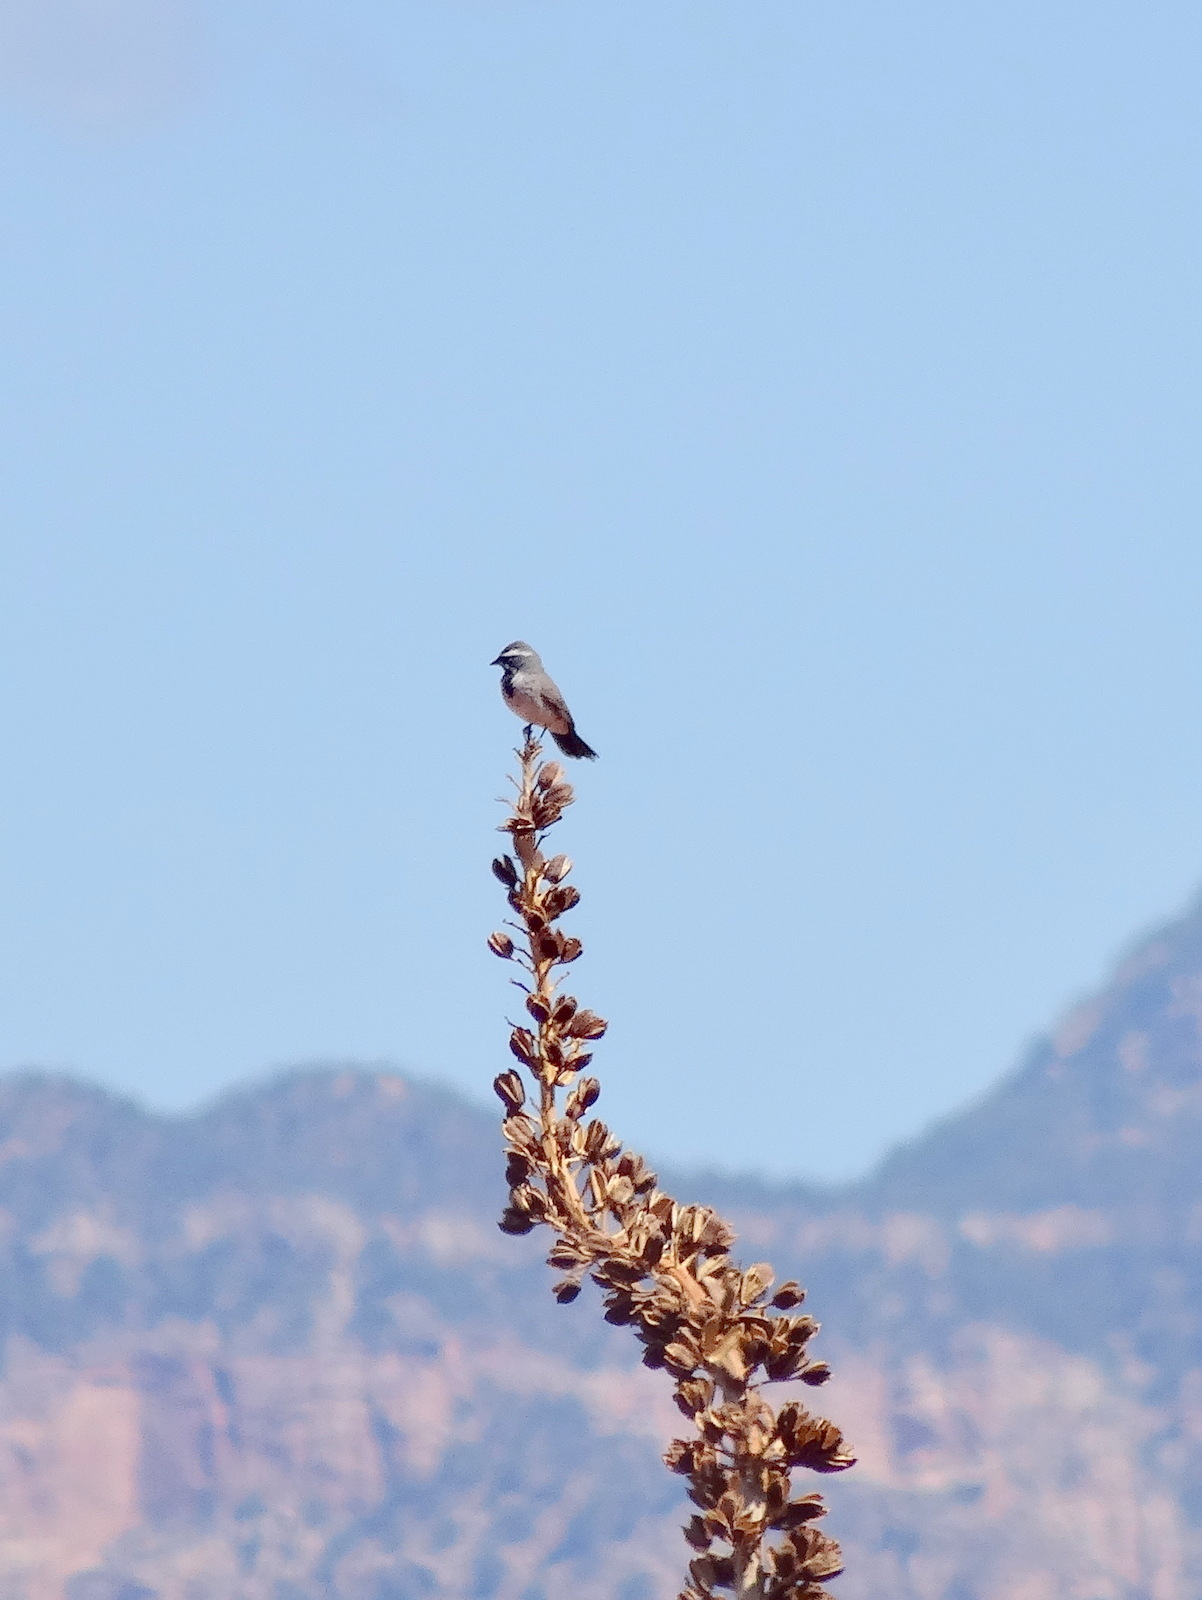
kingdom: Animalia
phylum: Chordata
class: Aves
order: Passeriformes
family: Passerellidae
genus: Amphispiza
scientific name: Amphispiza bilineata
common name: Black-throated sparrow
